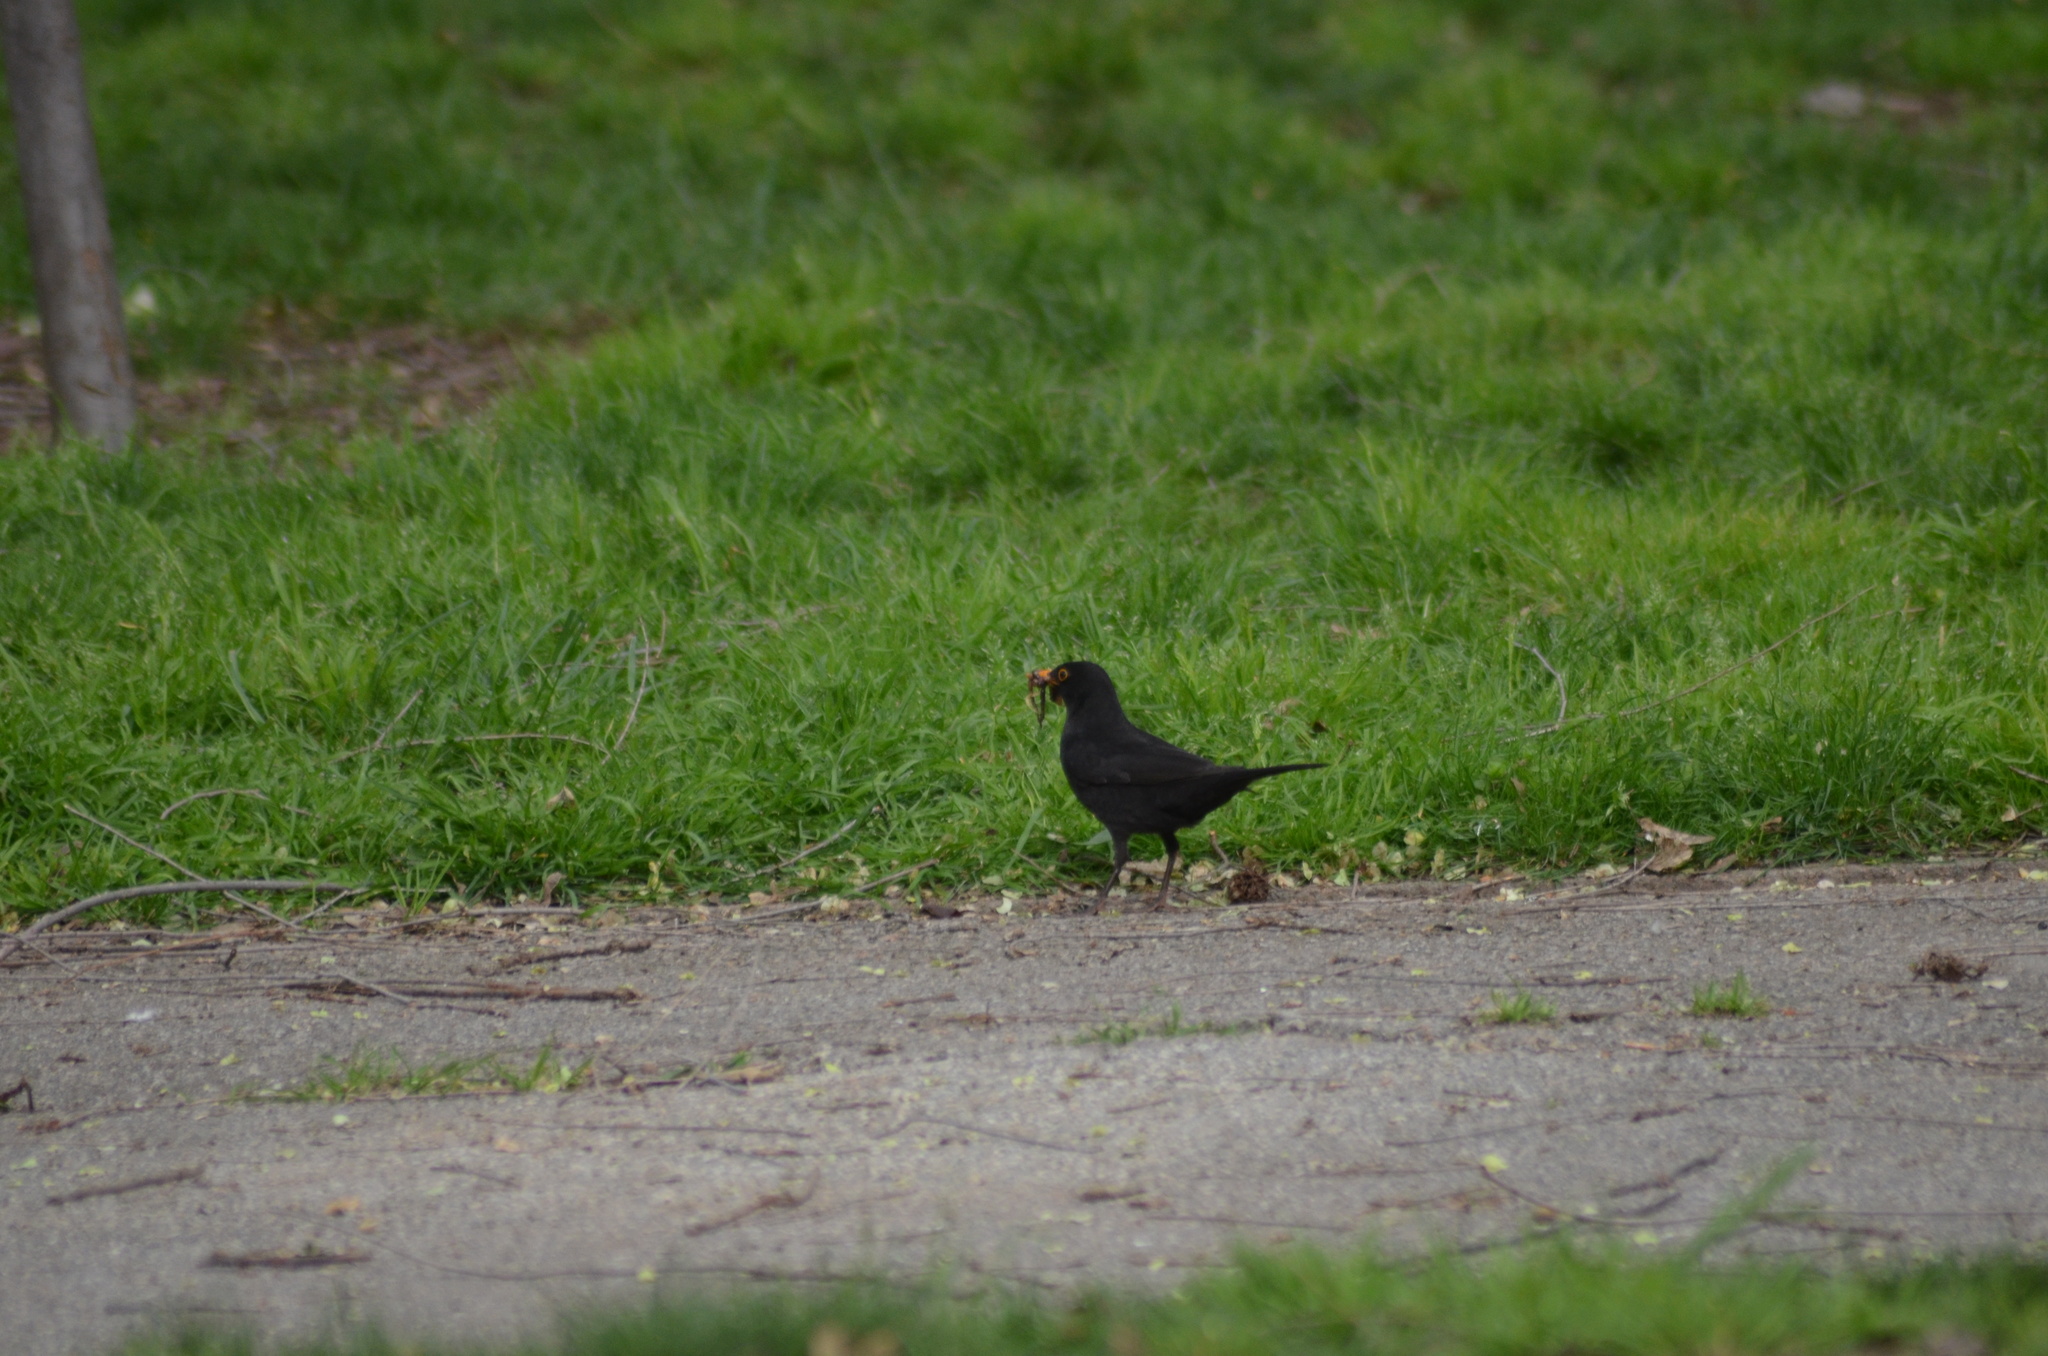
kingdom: Animalia
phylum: Chordata
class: Aves
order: Passeriformes
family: Turdidae
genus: Turdus
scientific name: Turdus merula
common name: Common blackbird
